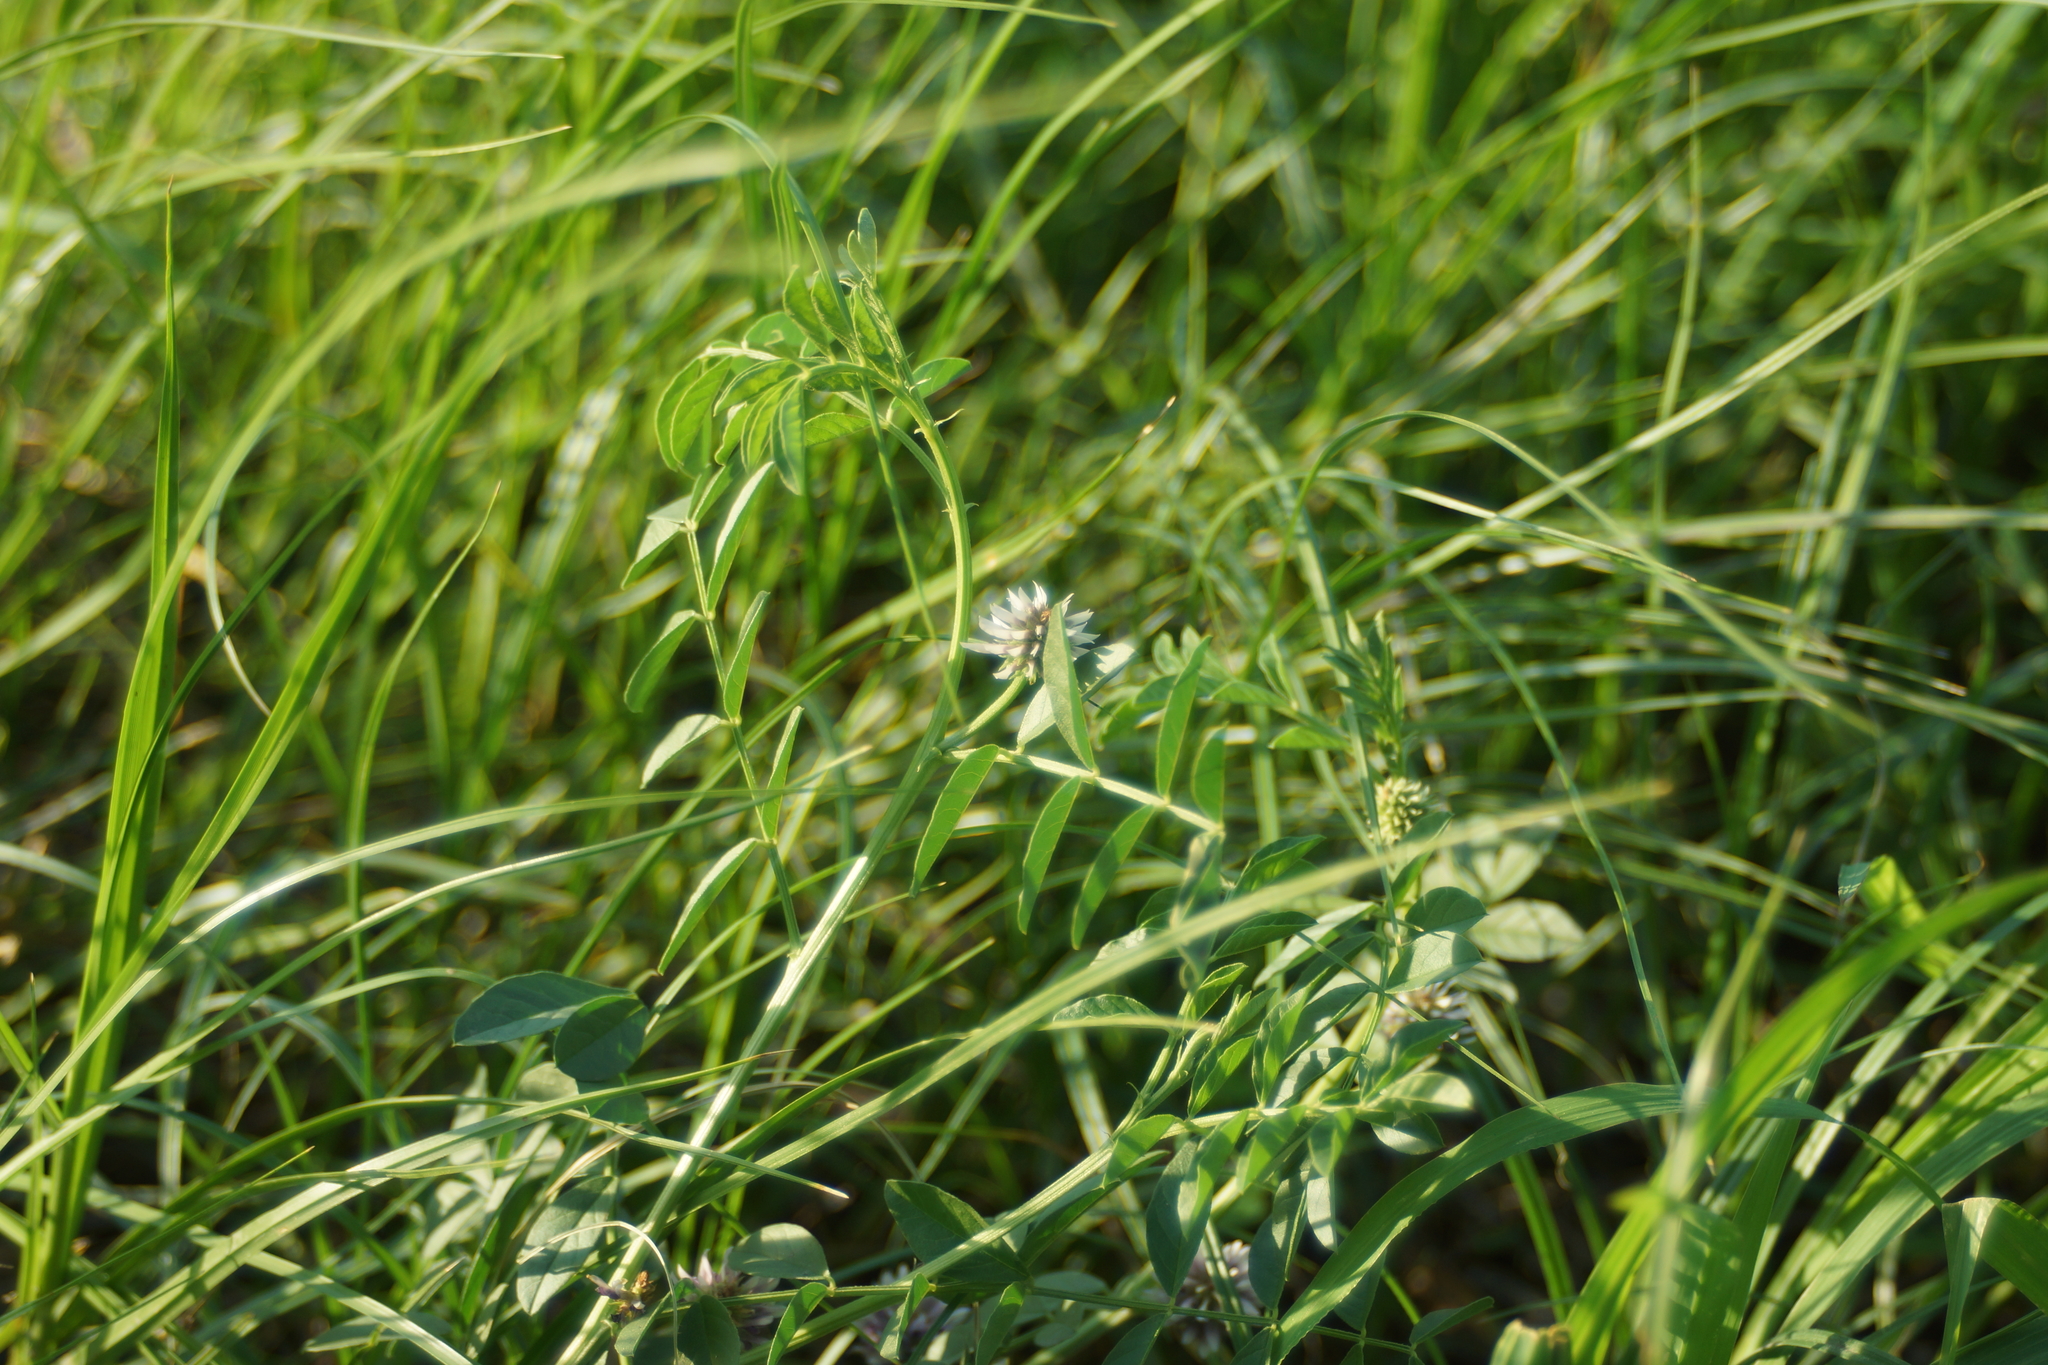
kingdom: Plantae
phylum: Tracheophyta
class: Magnoliopsida
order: Fabales
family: Fabaceae
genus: Glycyrrhiza
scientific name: Glycyrrhiza echinata
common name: German liquorice
